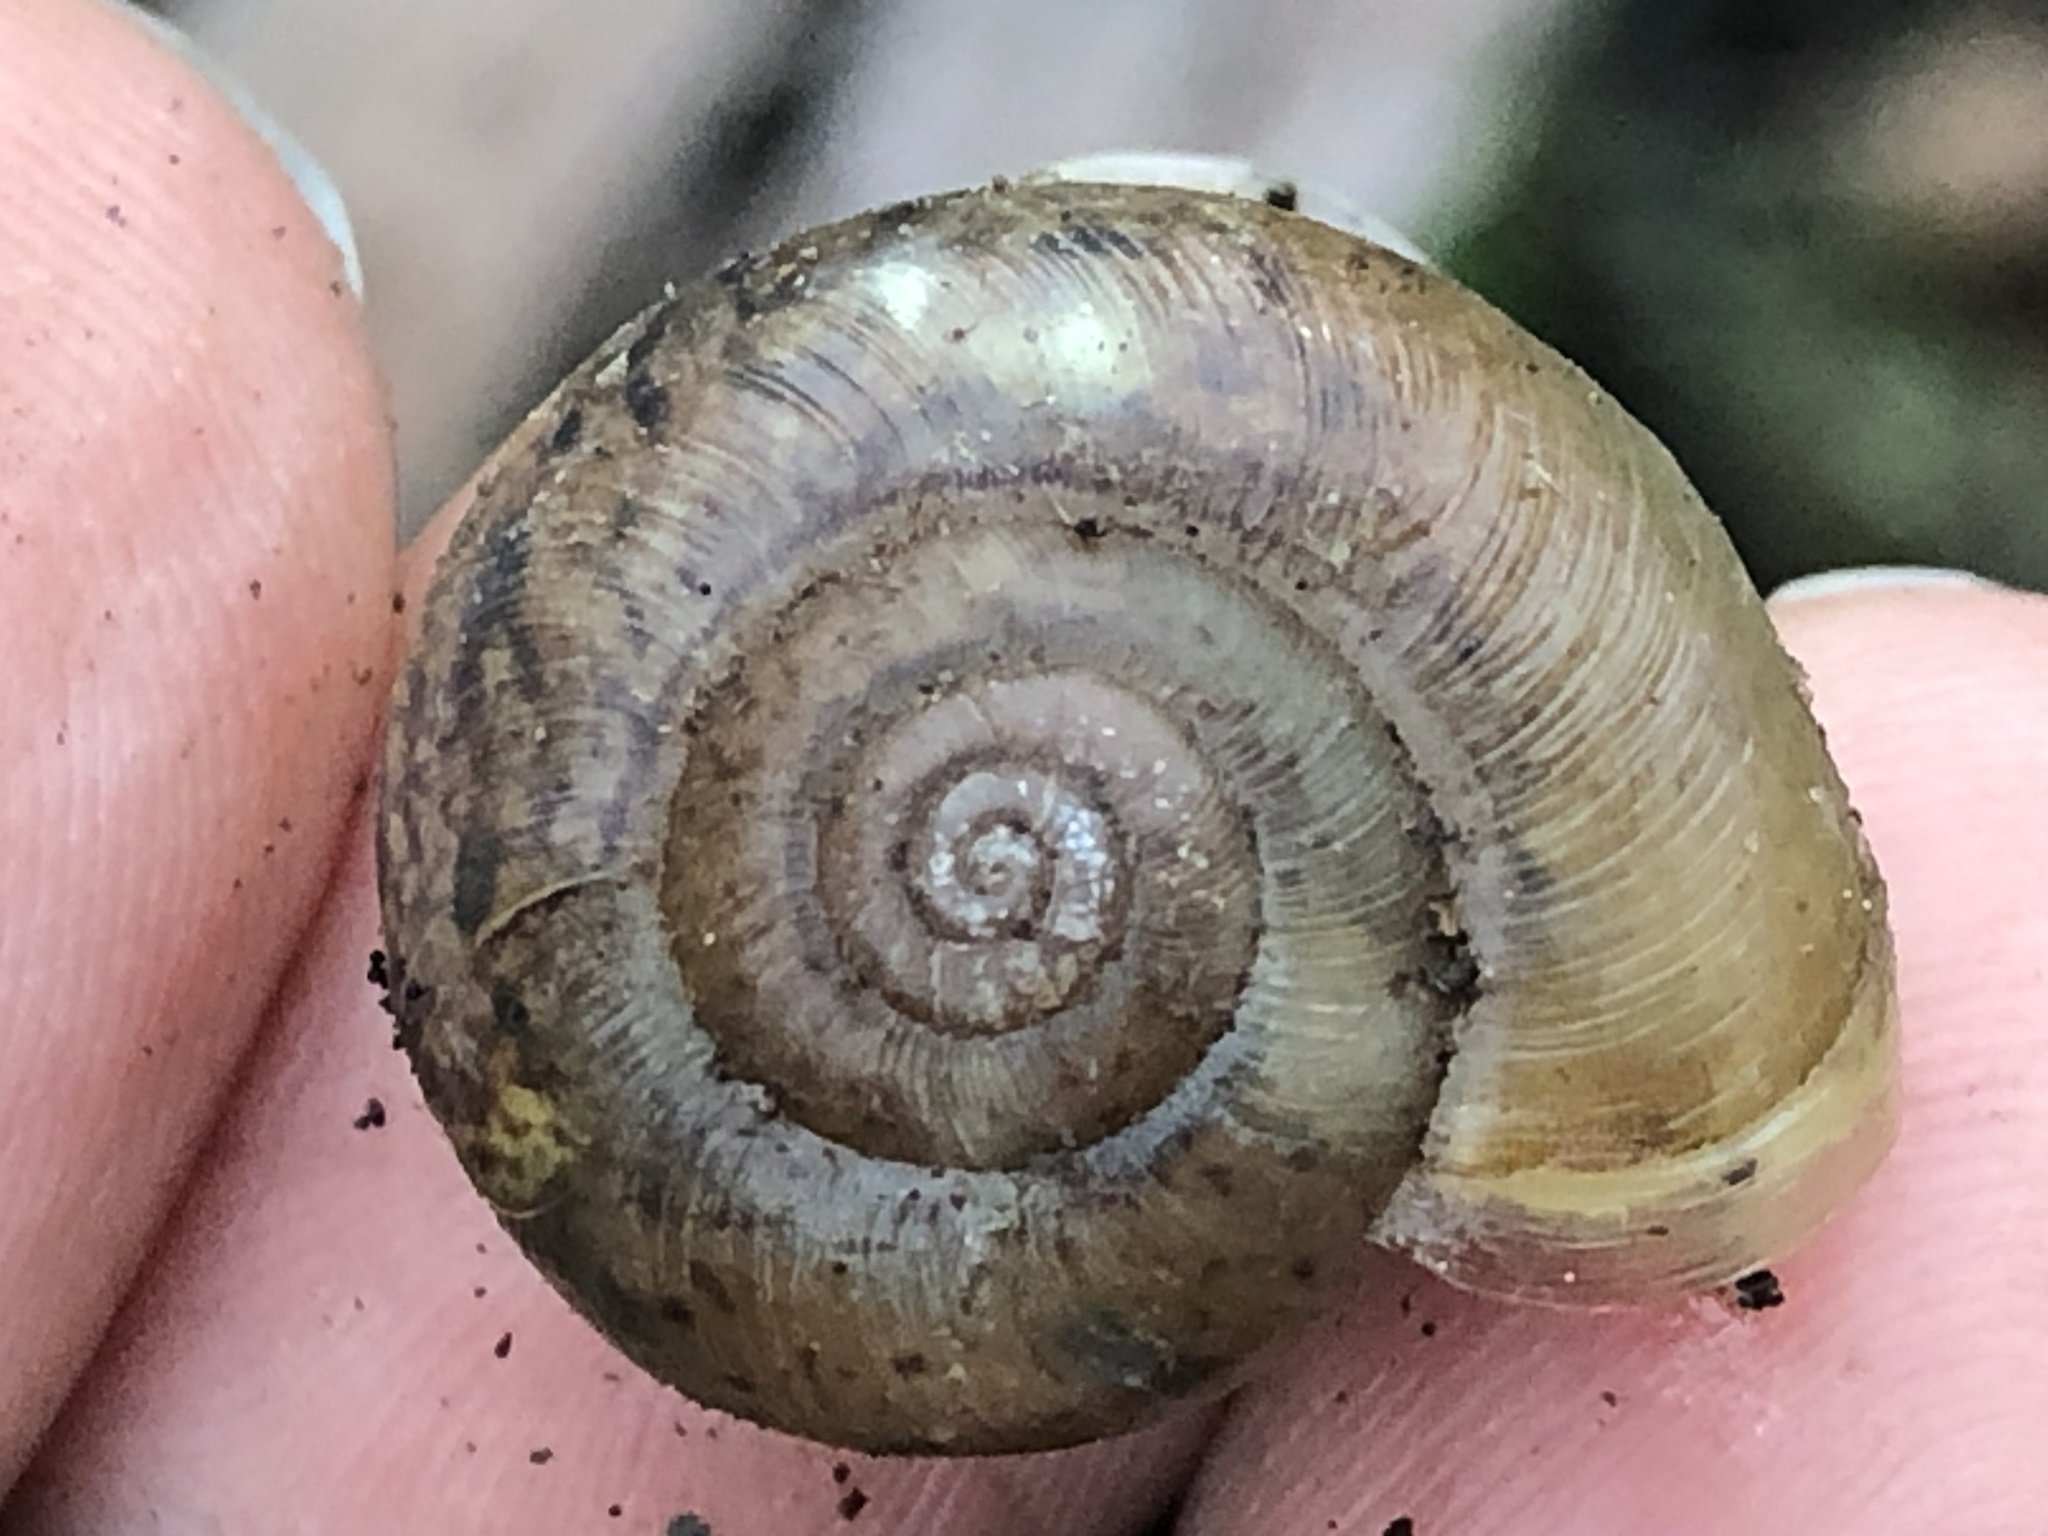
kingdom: Animalia
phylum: Mollusca
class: Gastropoda
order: Stylommatophora
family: Haplotrematidae
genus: Haplotrema
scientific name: Haplotrema minimum
